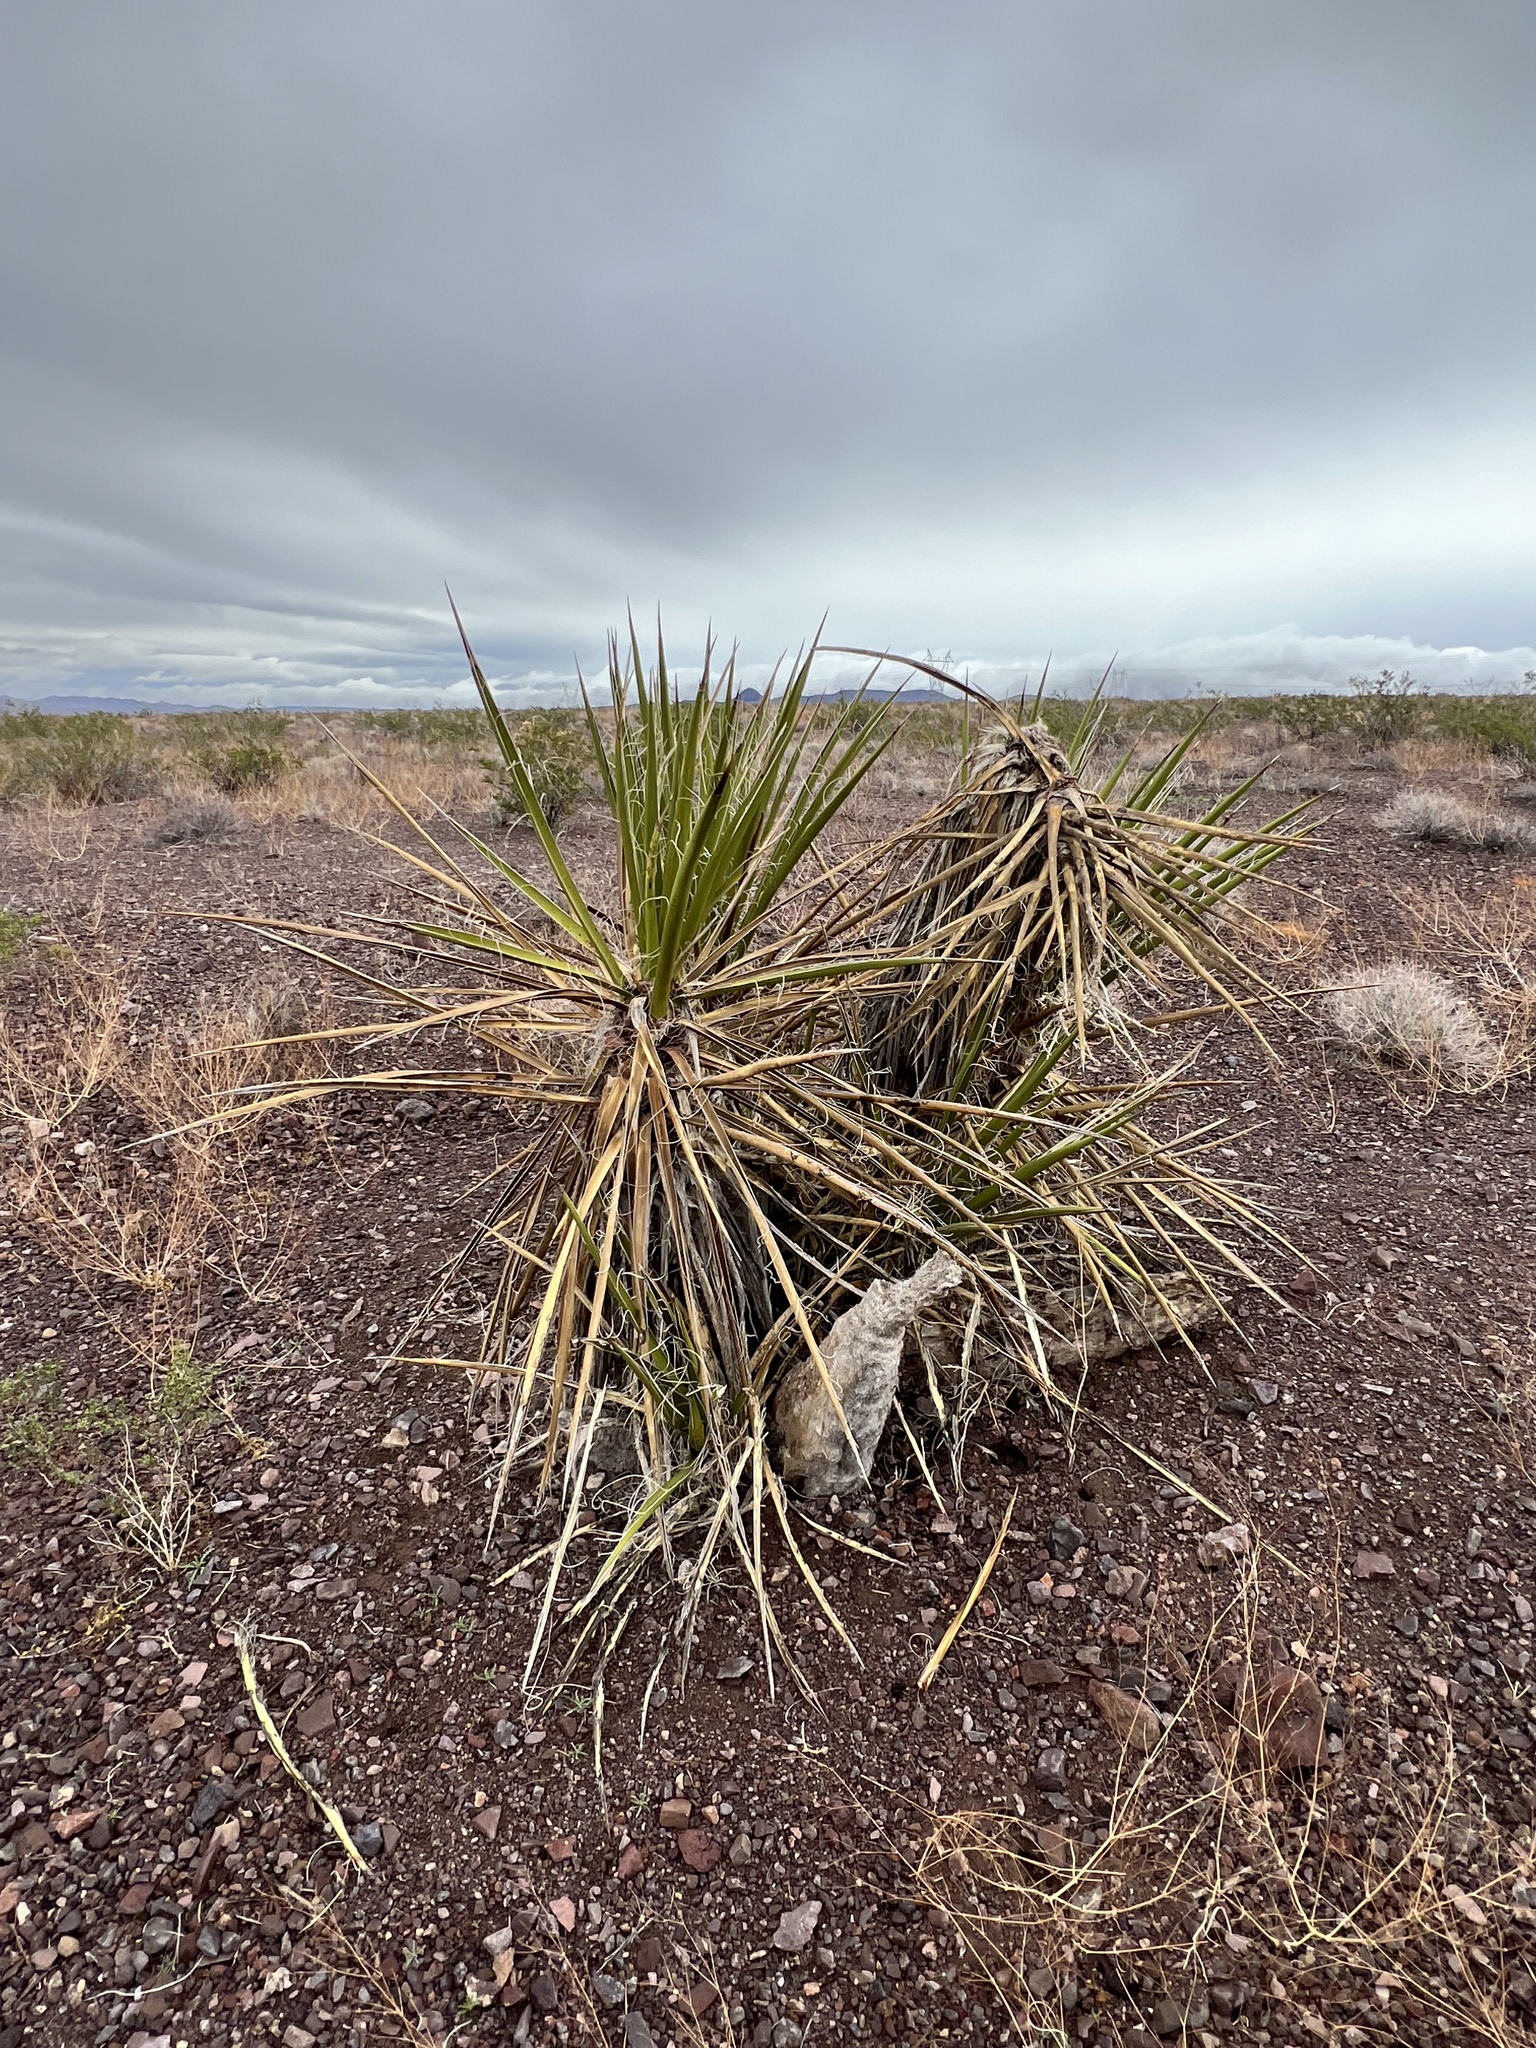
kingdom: Plantae
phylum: Tracheophyta
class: Liliopsida
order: Asparagales
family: Asparagaceae
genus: Yucca
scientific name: Yucca schidigera
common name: Mojave yucca
